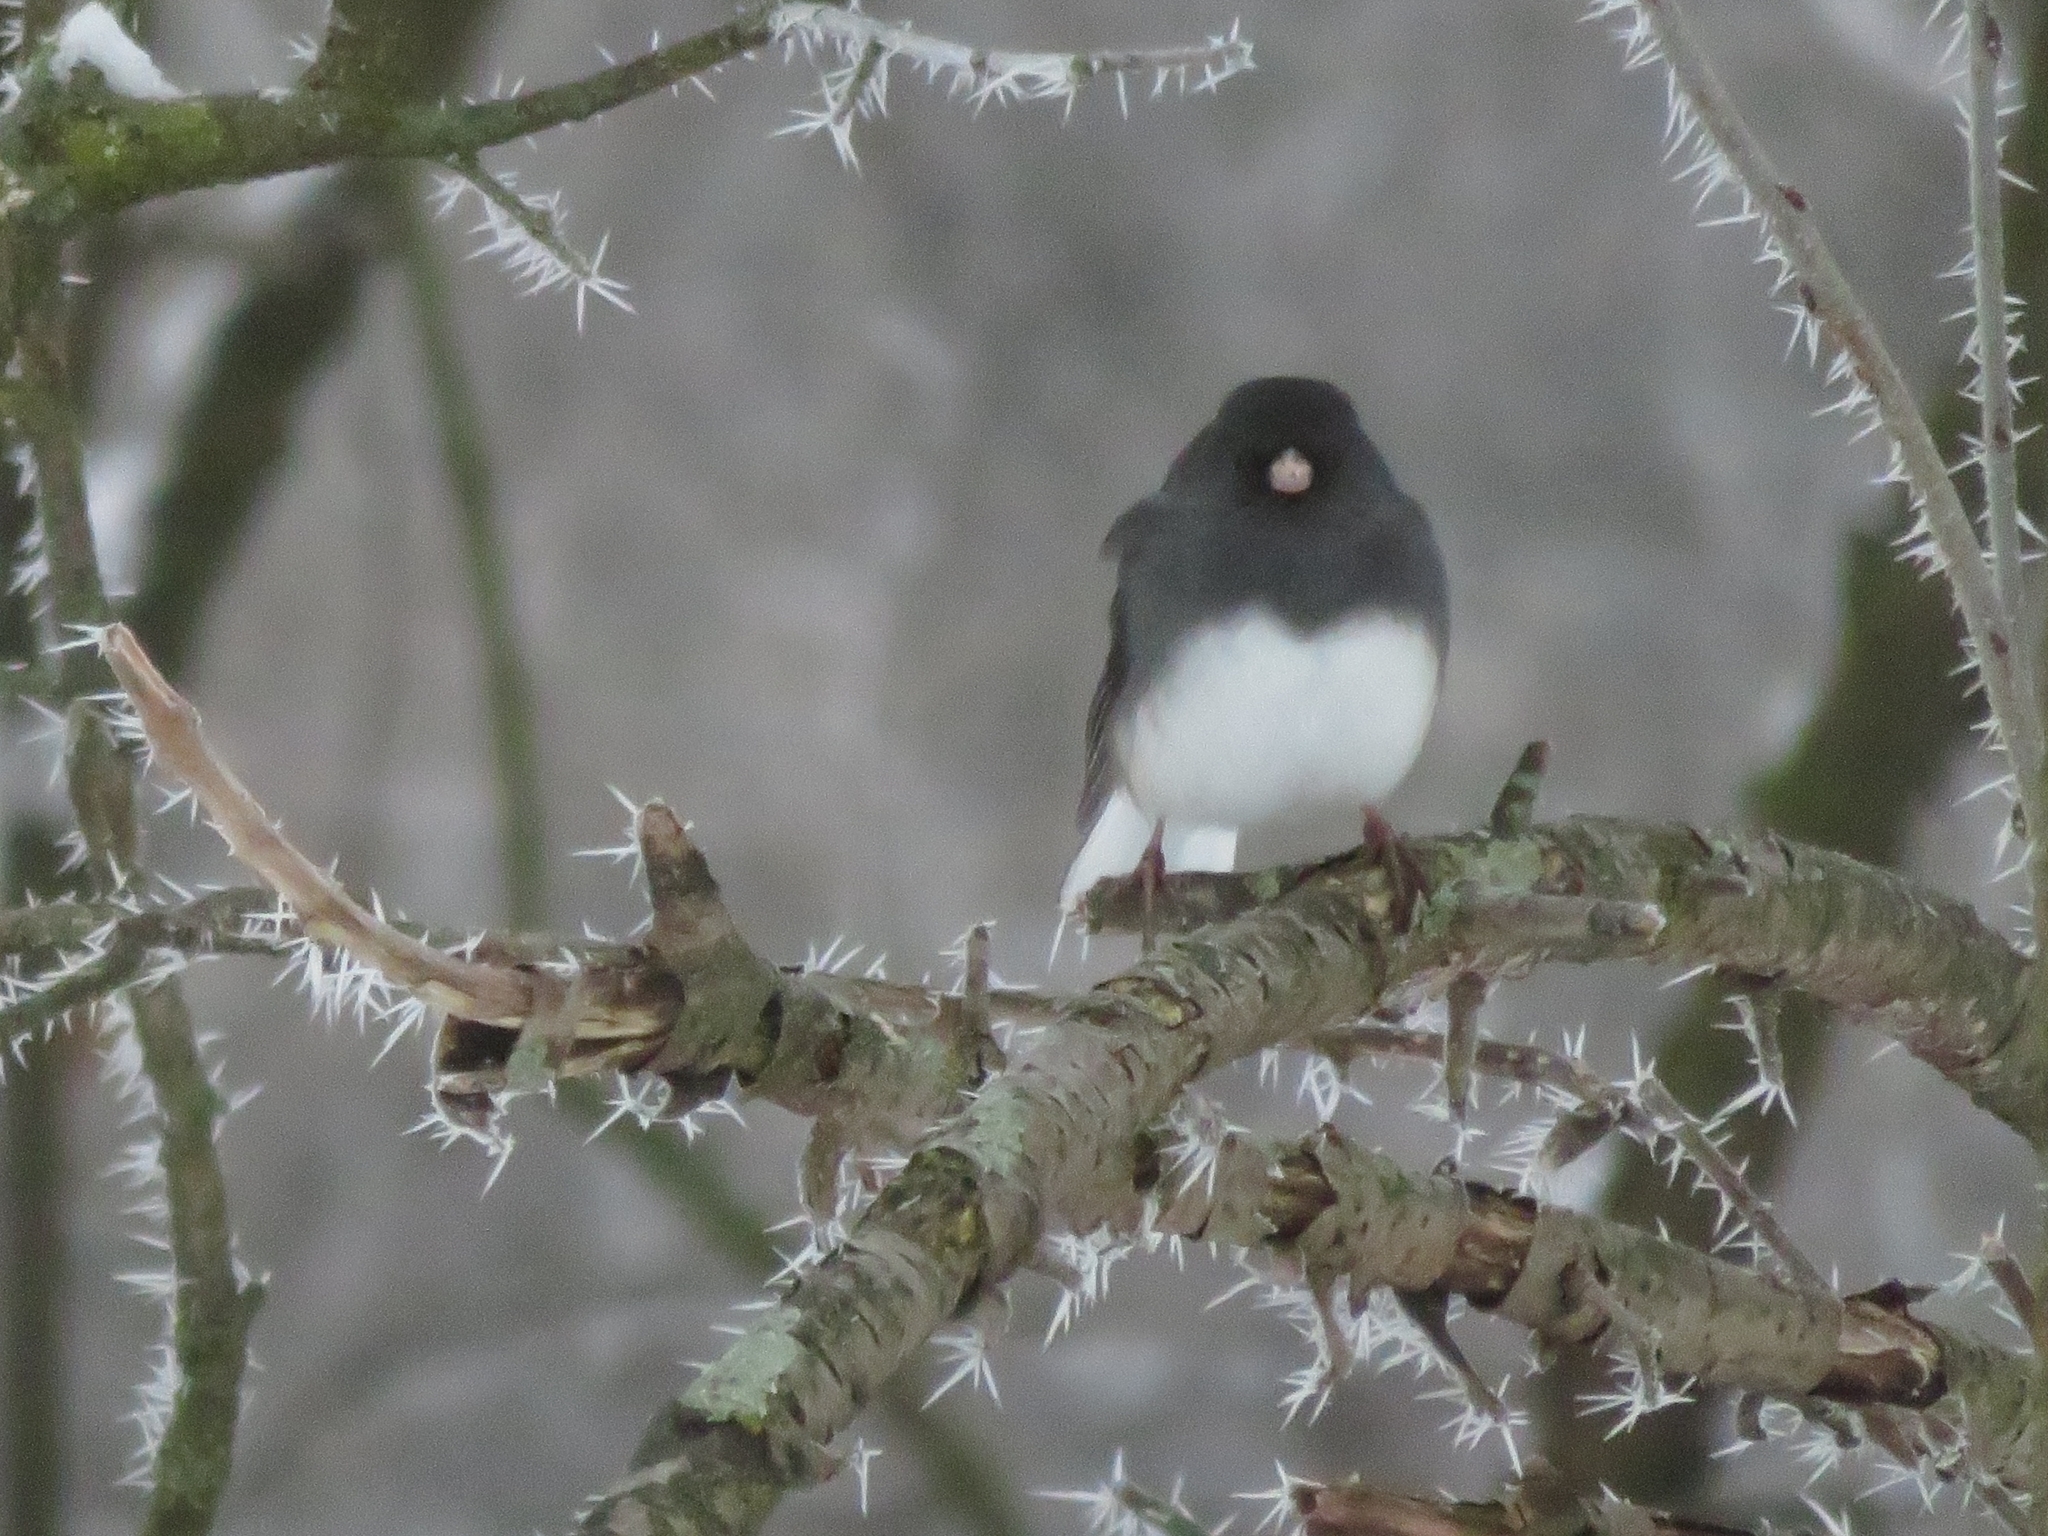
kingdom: Animalia
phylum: Chordata
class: Aves
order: Passeriformes
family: Passerellidae
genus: Junco
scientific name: Junco hyemalis
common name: Dark-eyed junco
